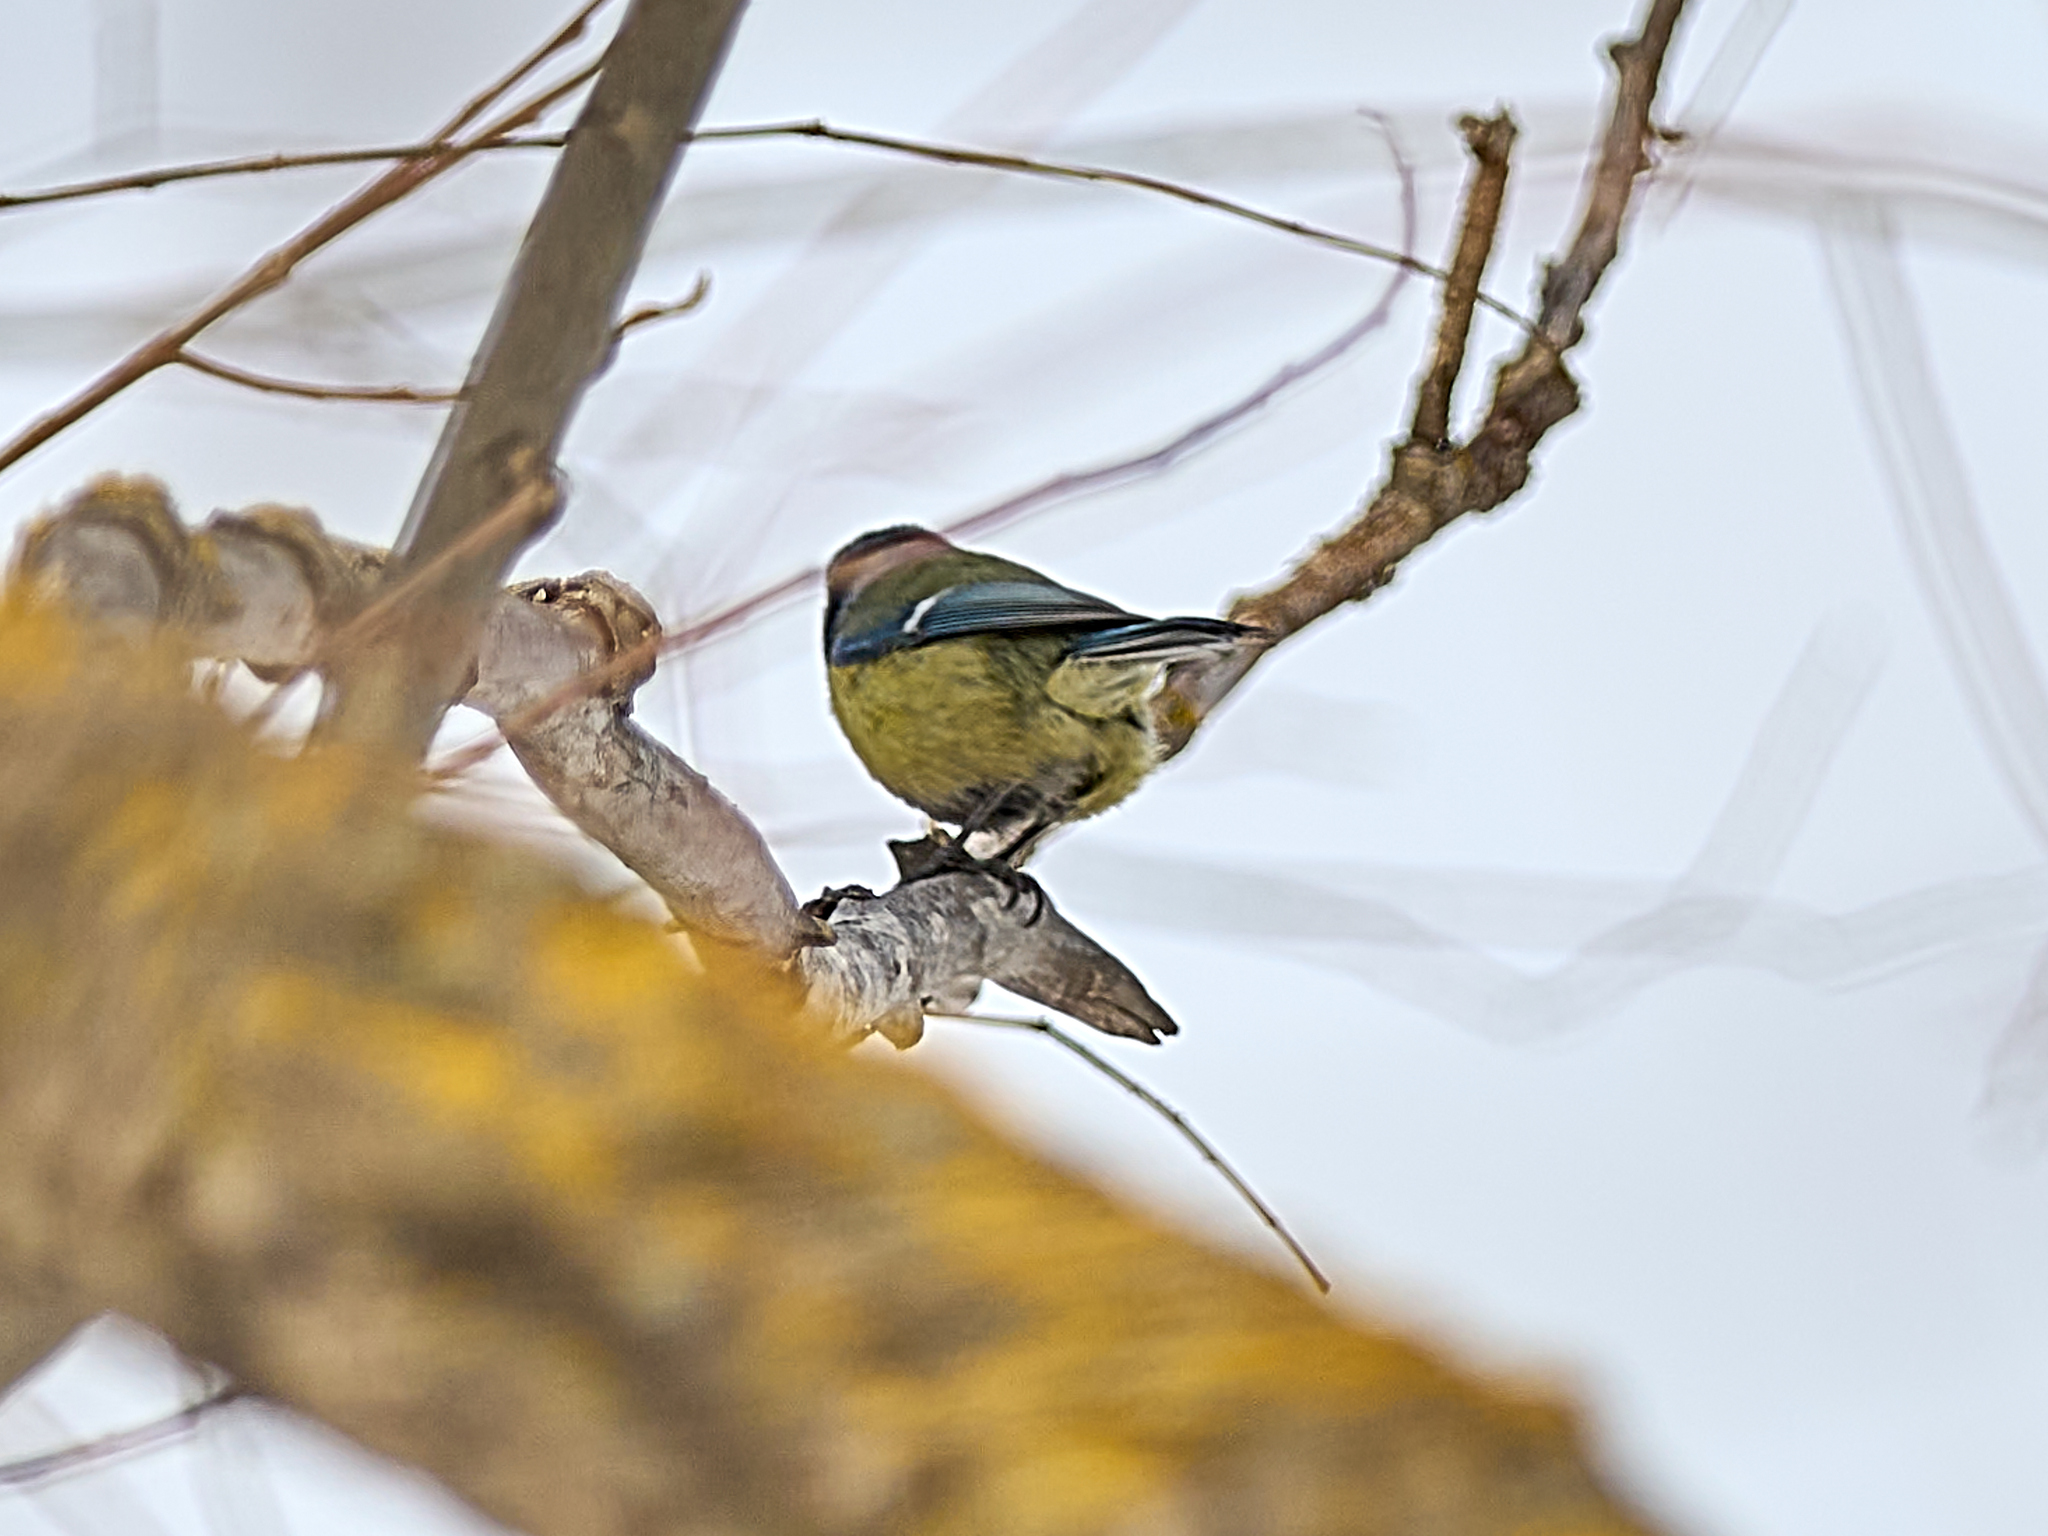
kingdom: Animalia
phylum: Chordata
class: Aves
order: Passeriformes
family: Paridae
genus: Cyanistes
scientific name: Cyanistes caeruleus
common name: Eurasian blue tit
